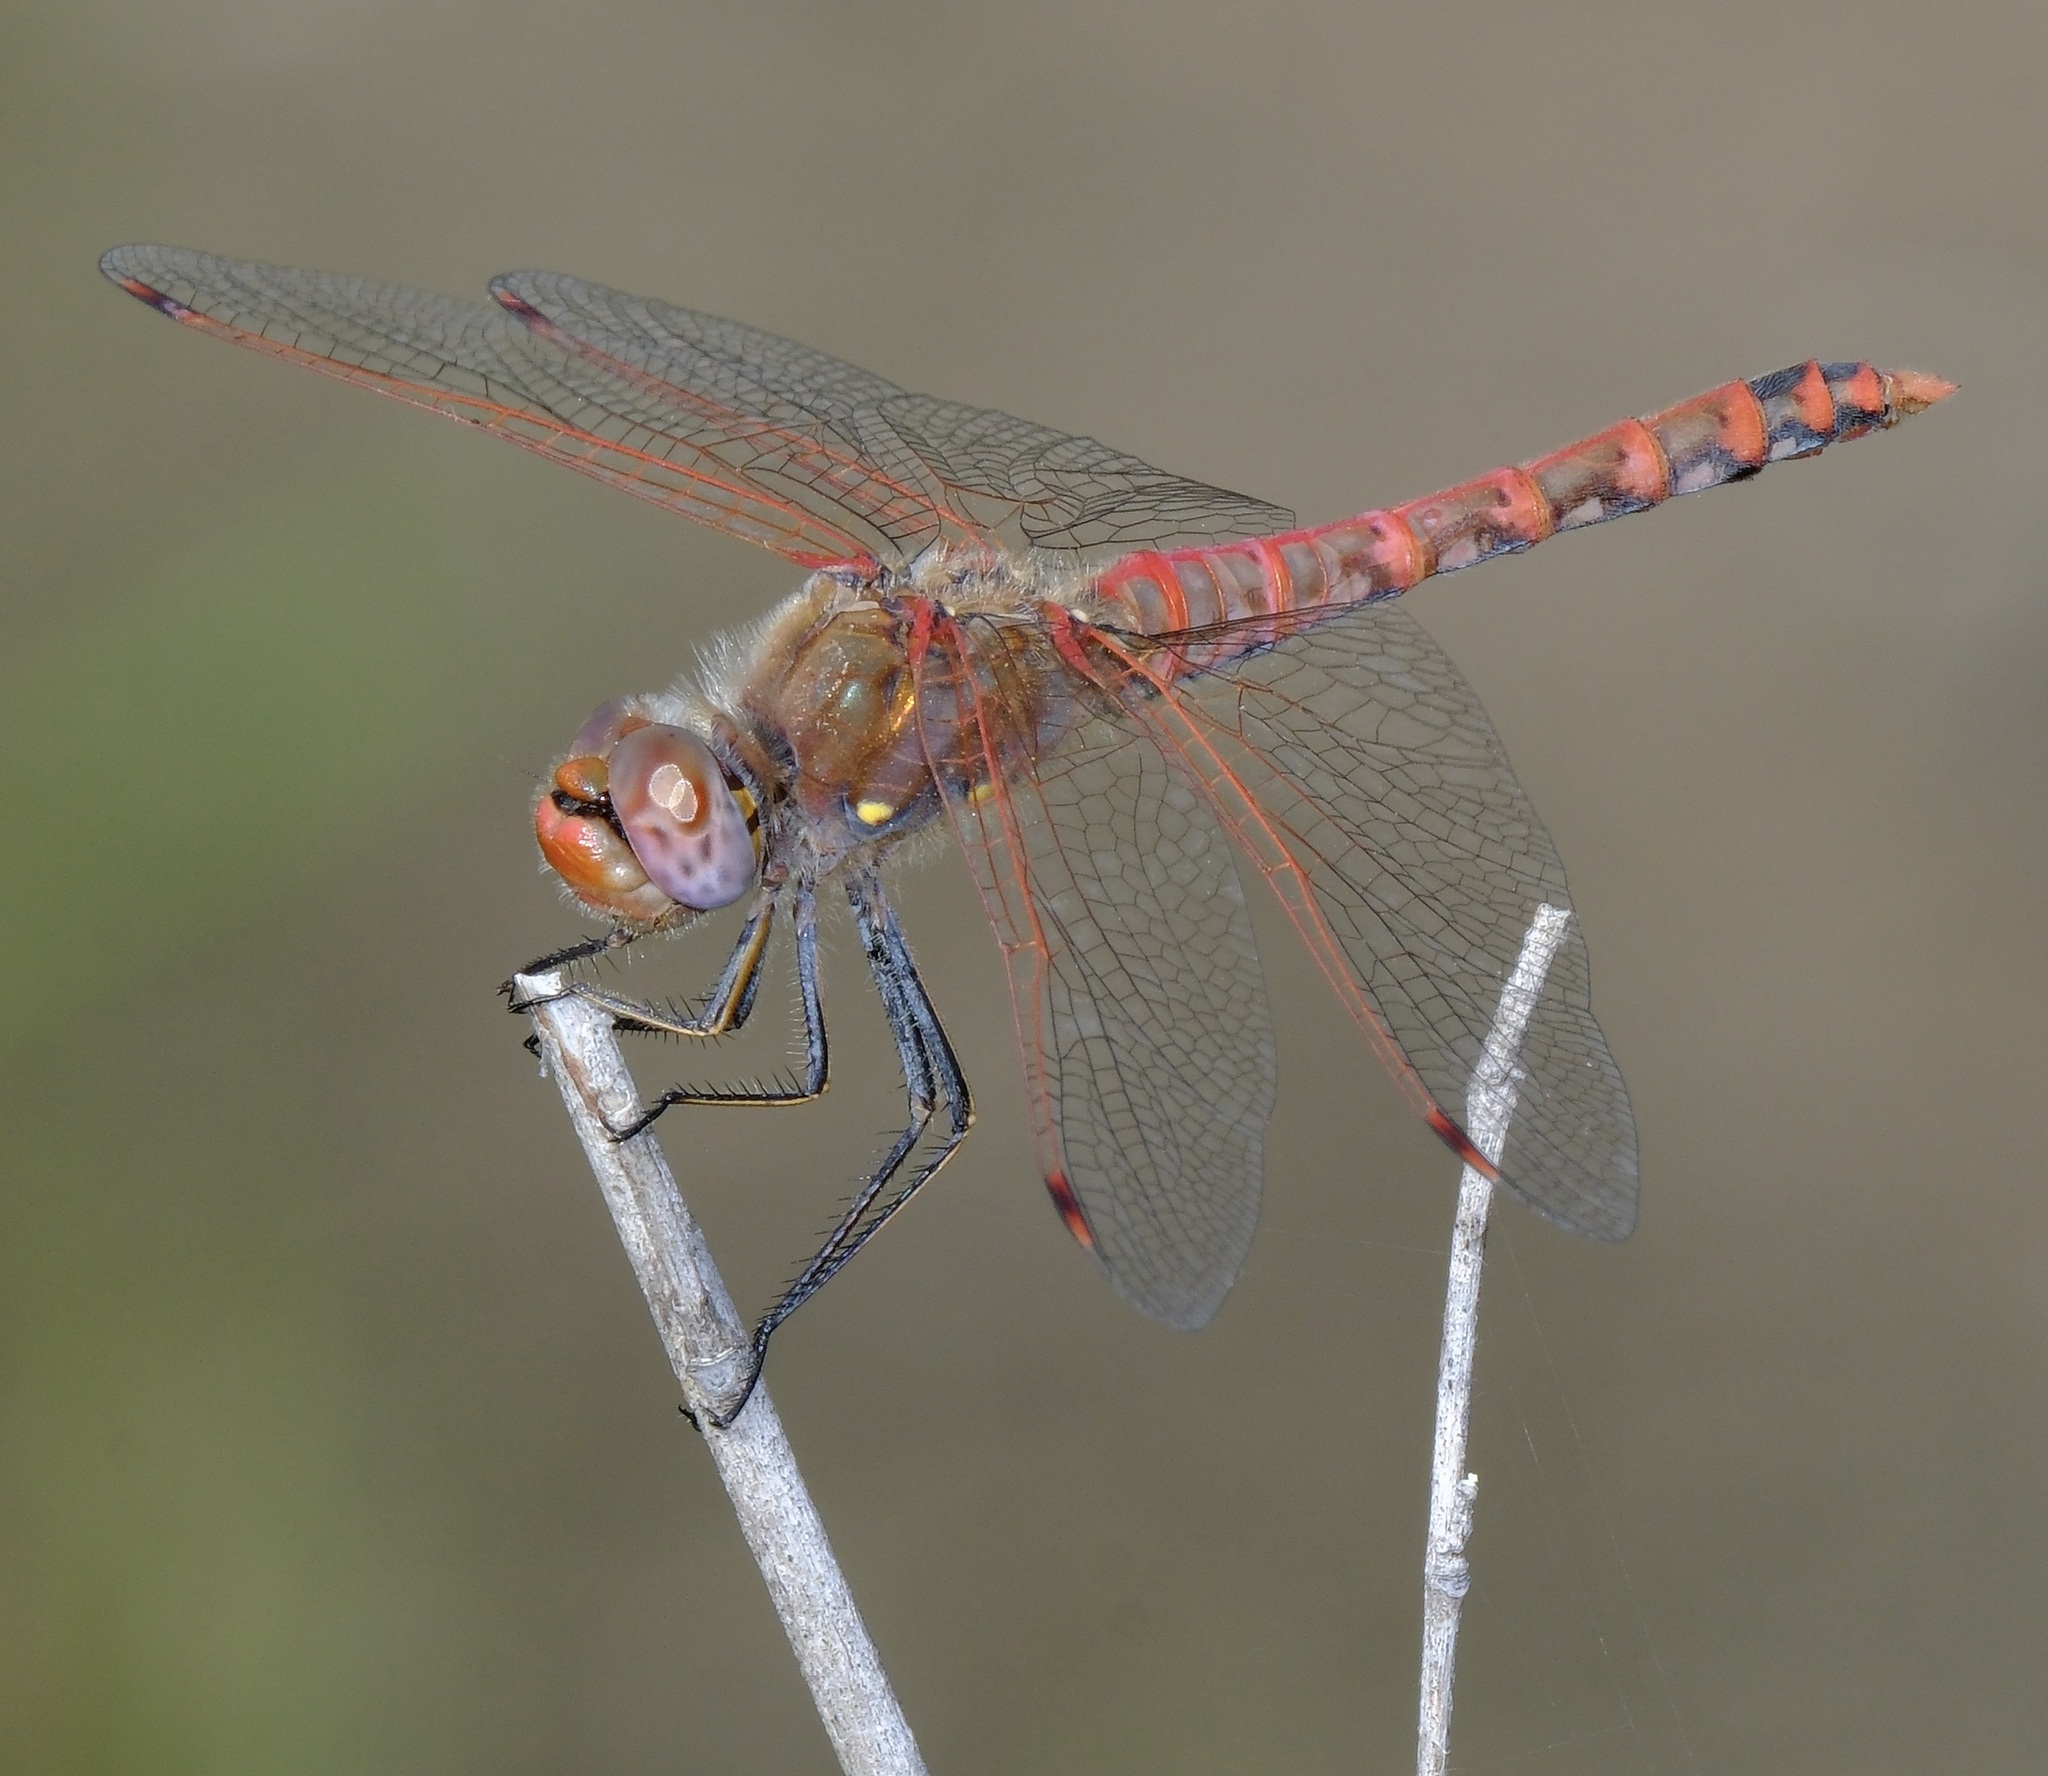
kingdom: Animalia
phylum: Arthropoda
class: Insecta
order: Odonata
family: Libellulidae
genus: Sympetrum
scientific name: Sympetrum corruptum
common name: Variegated meadowhawk
